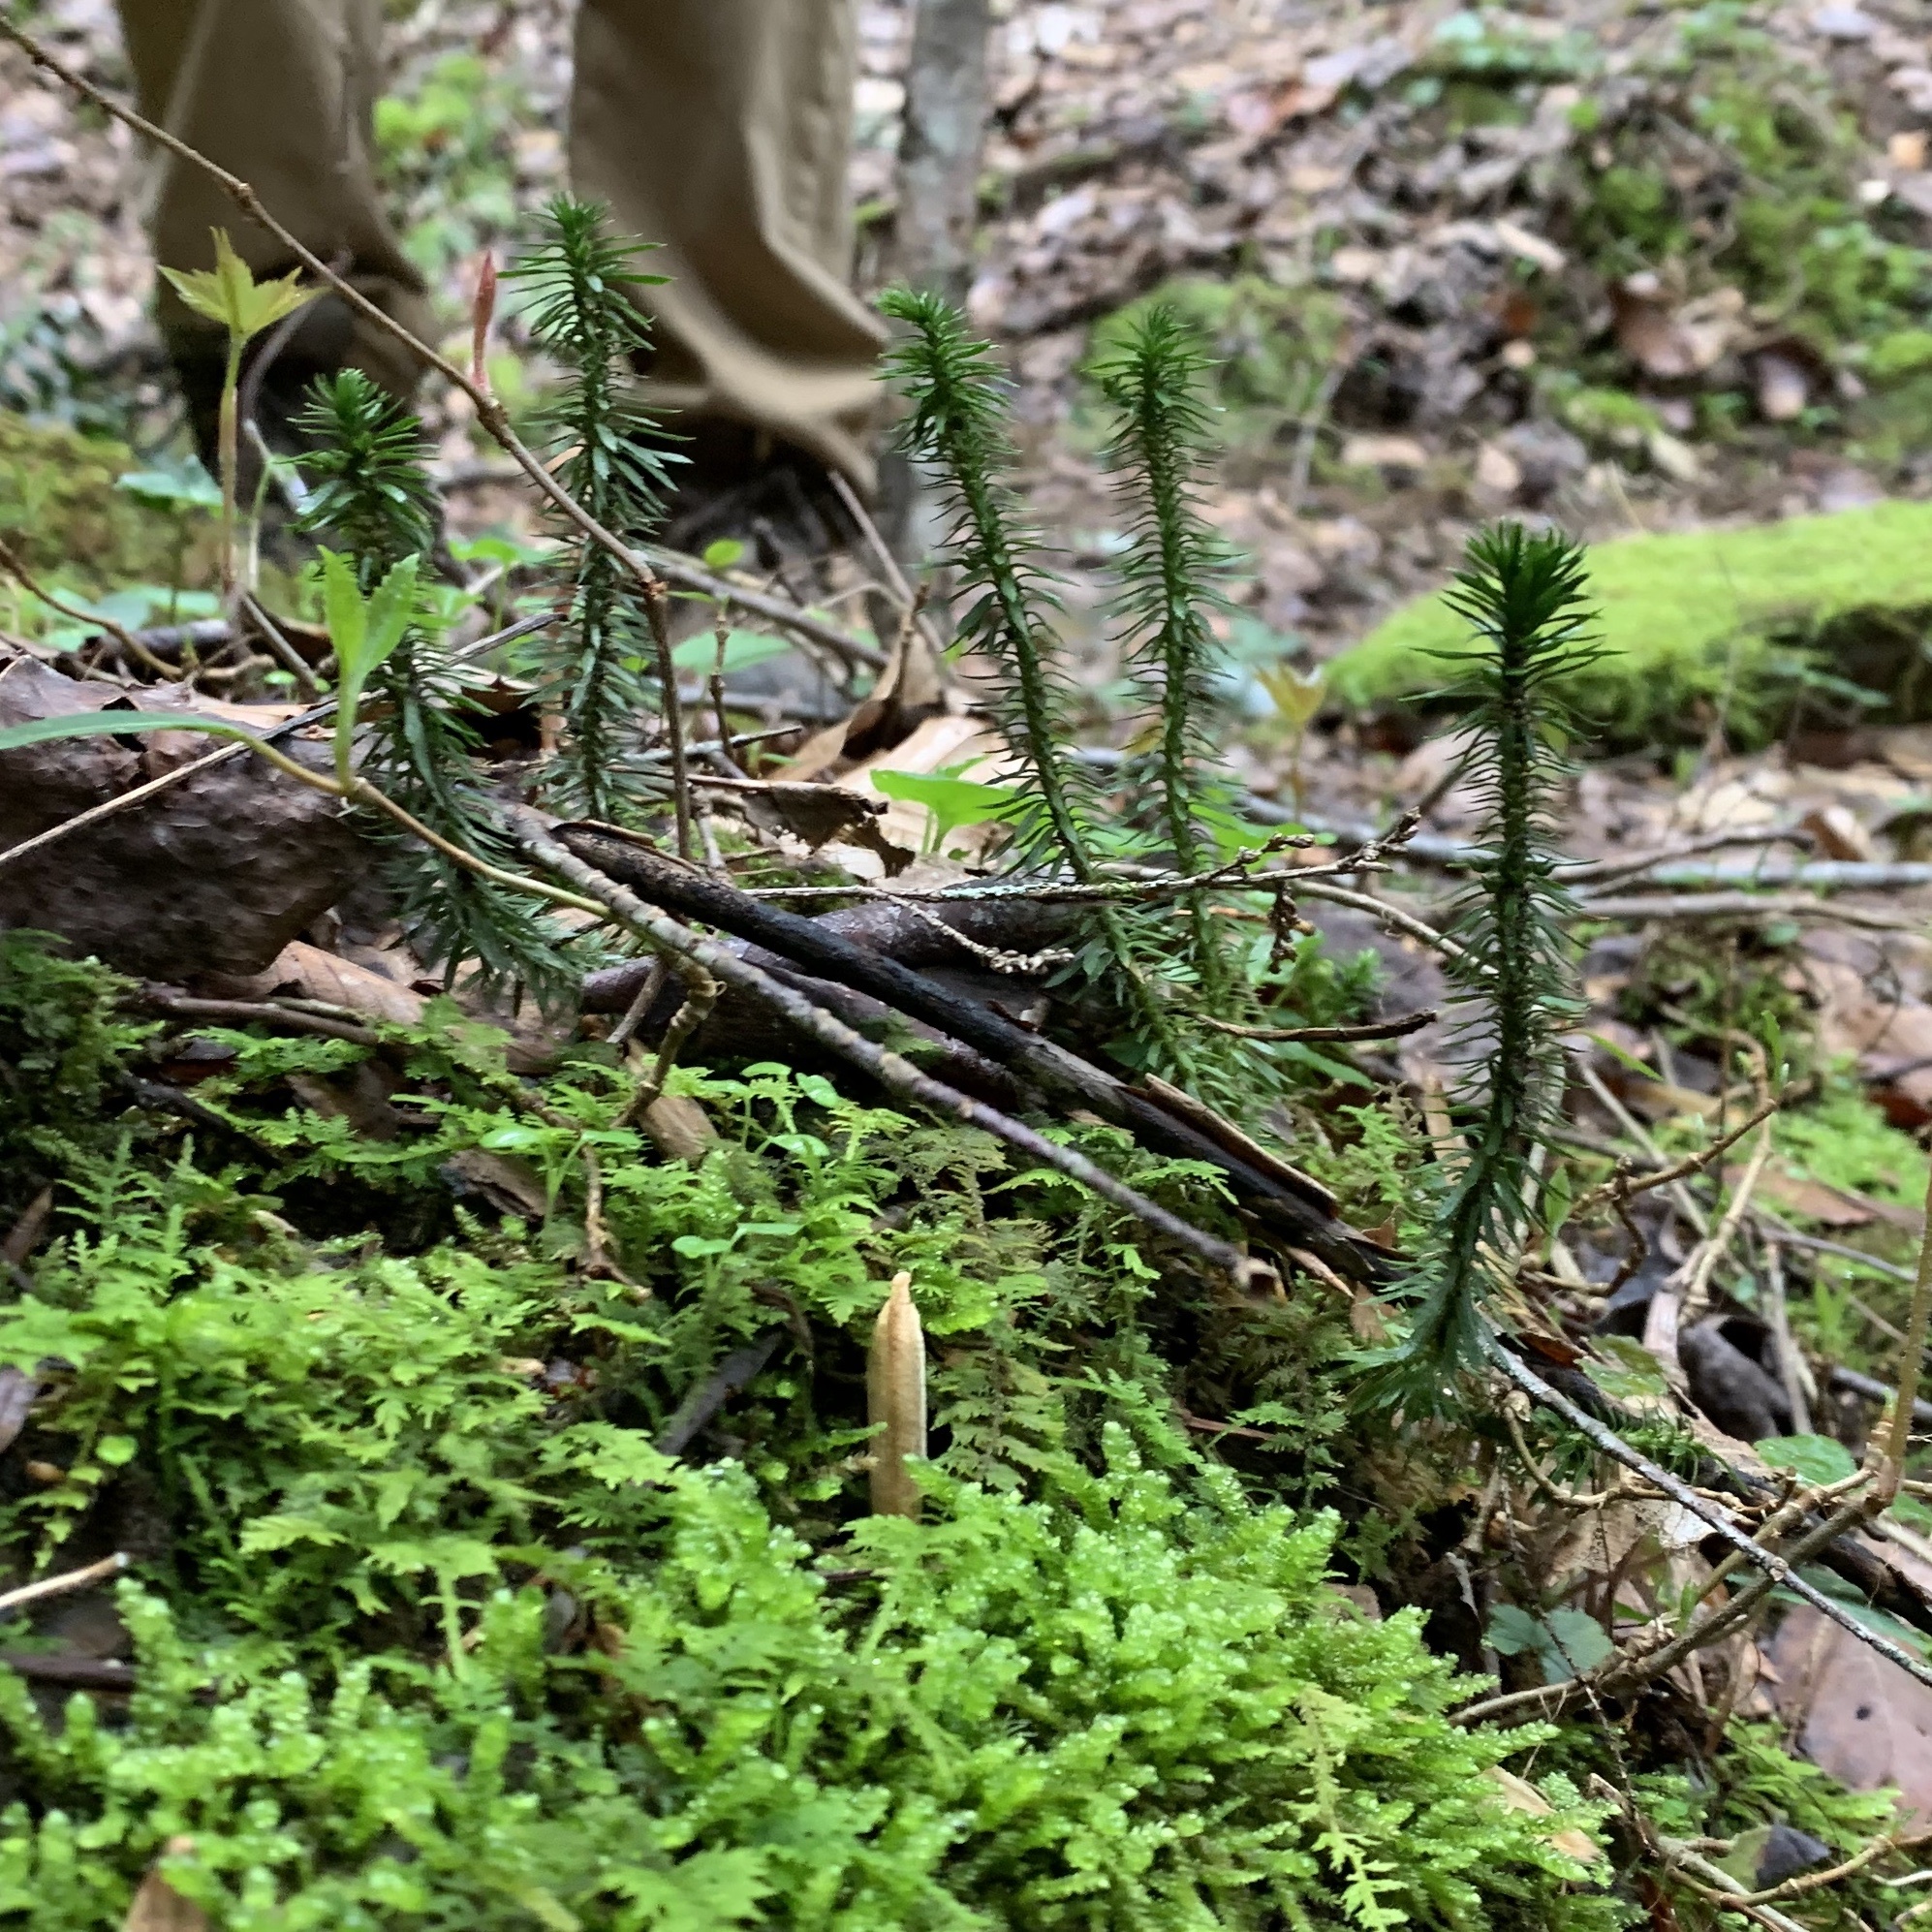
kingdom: Plantae
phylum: Tracheophyta
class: Lycopodiopsida
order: Lycopodiales
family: Lycopodiaceae
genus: Huperzia
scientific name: Huperzia lucidula
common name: Shining clubmoss
